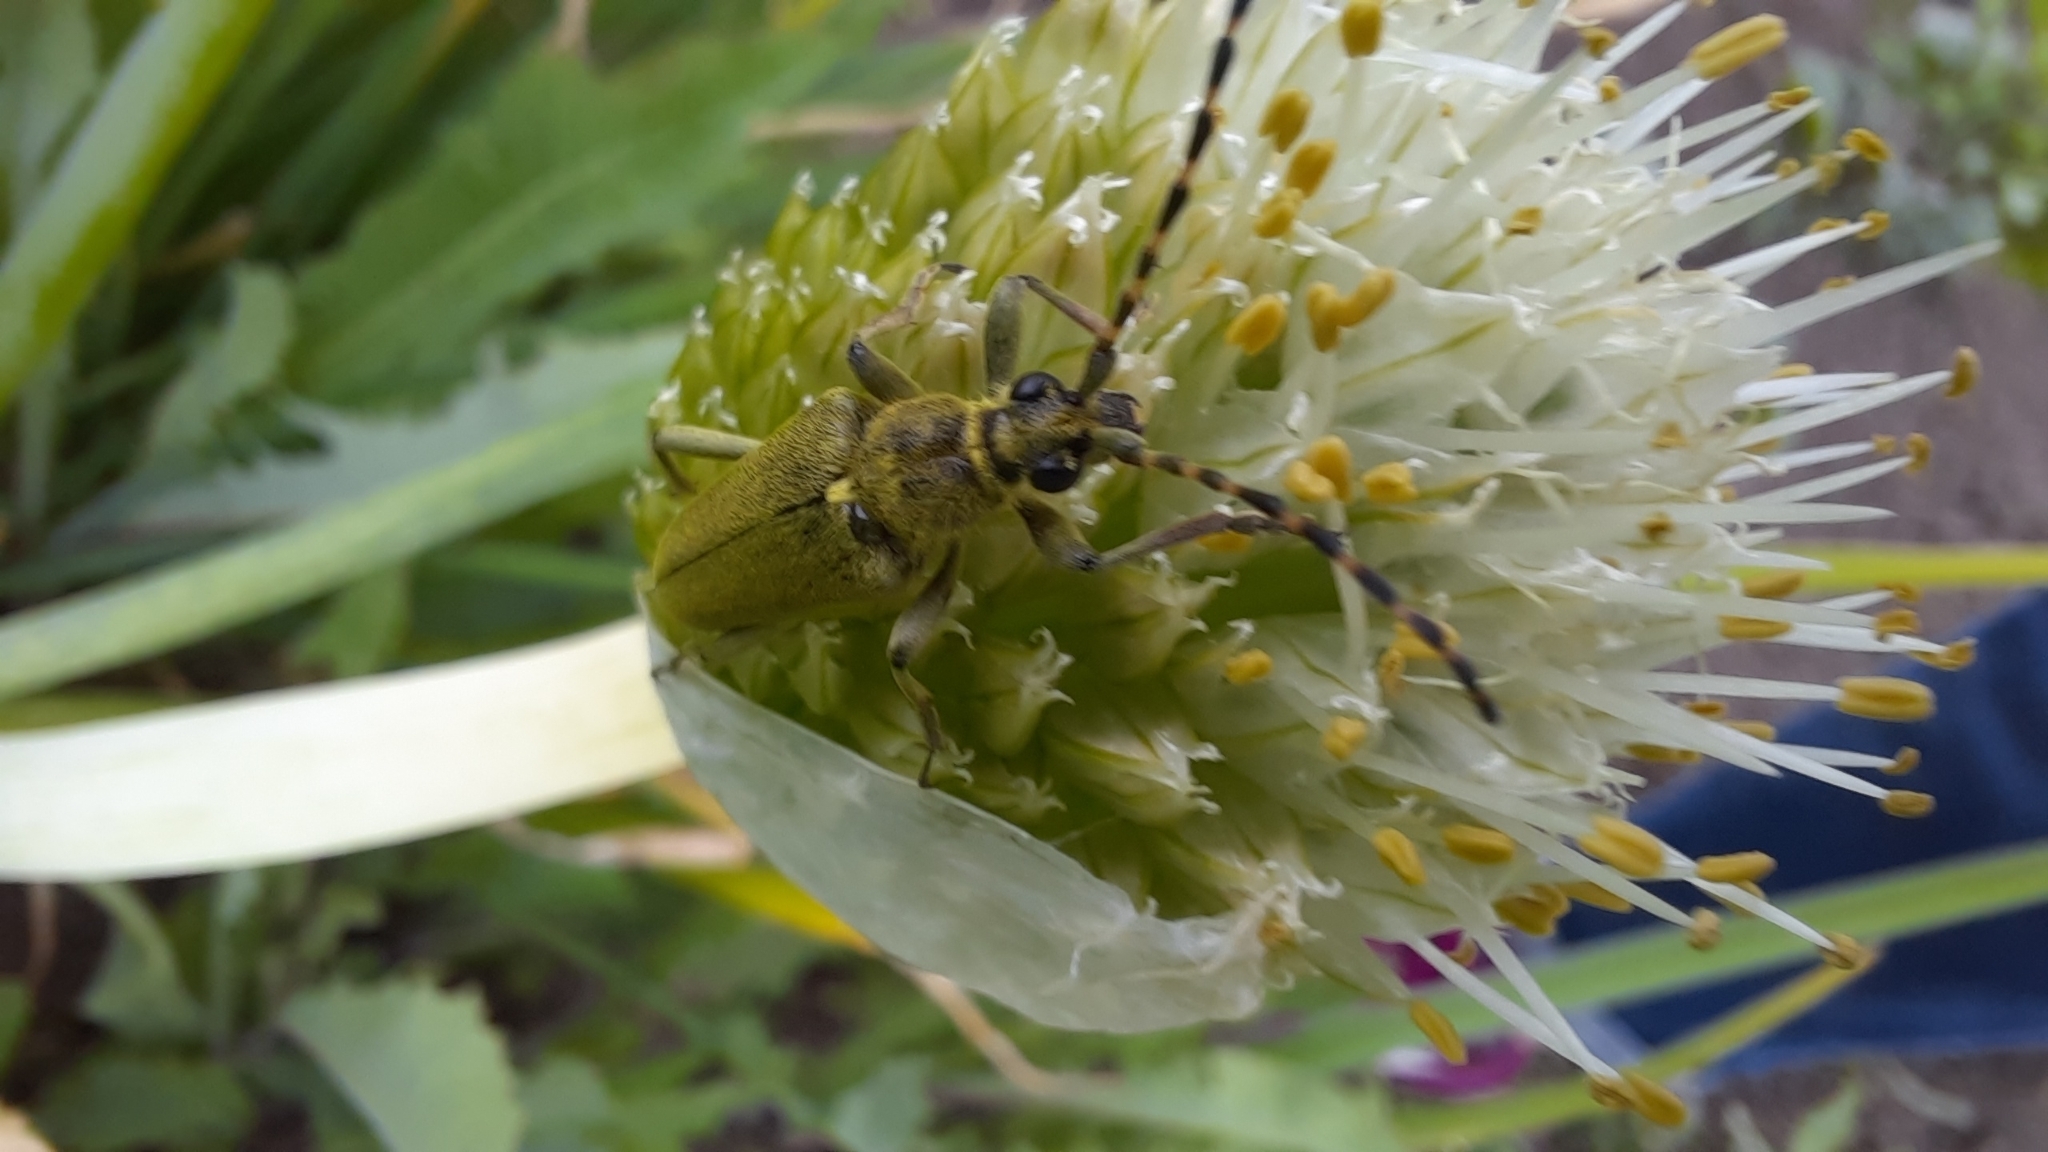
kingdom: Animalia
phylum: Arthropoda
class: Insecta
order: Coleoptera
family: Cerambycidae
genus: Lepturobosca
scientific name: Lepturobosca virens
